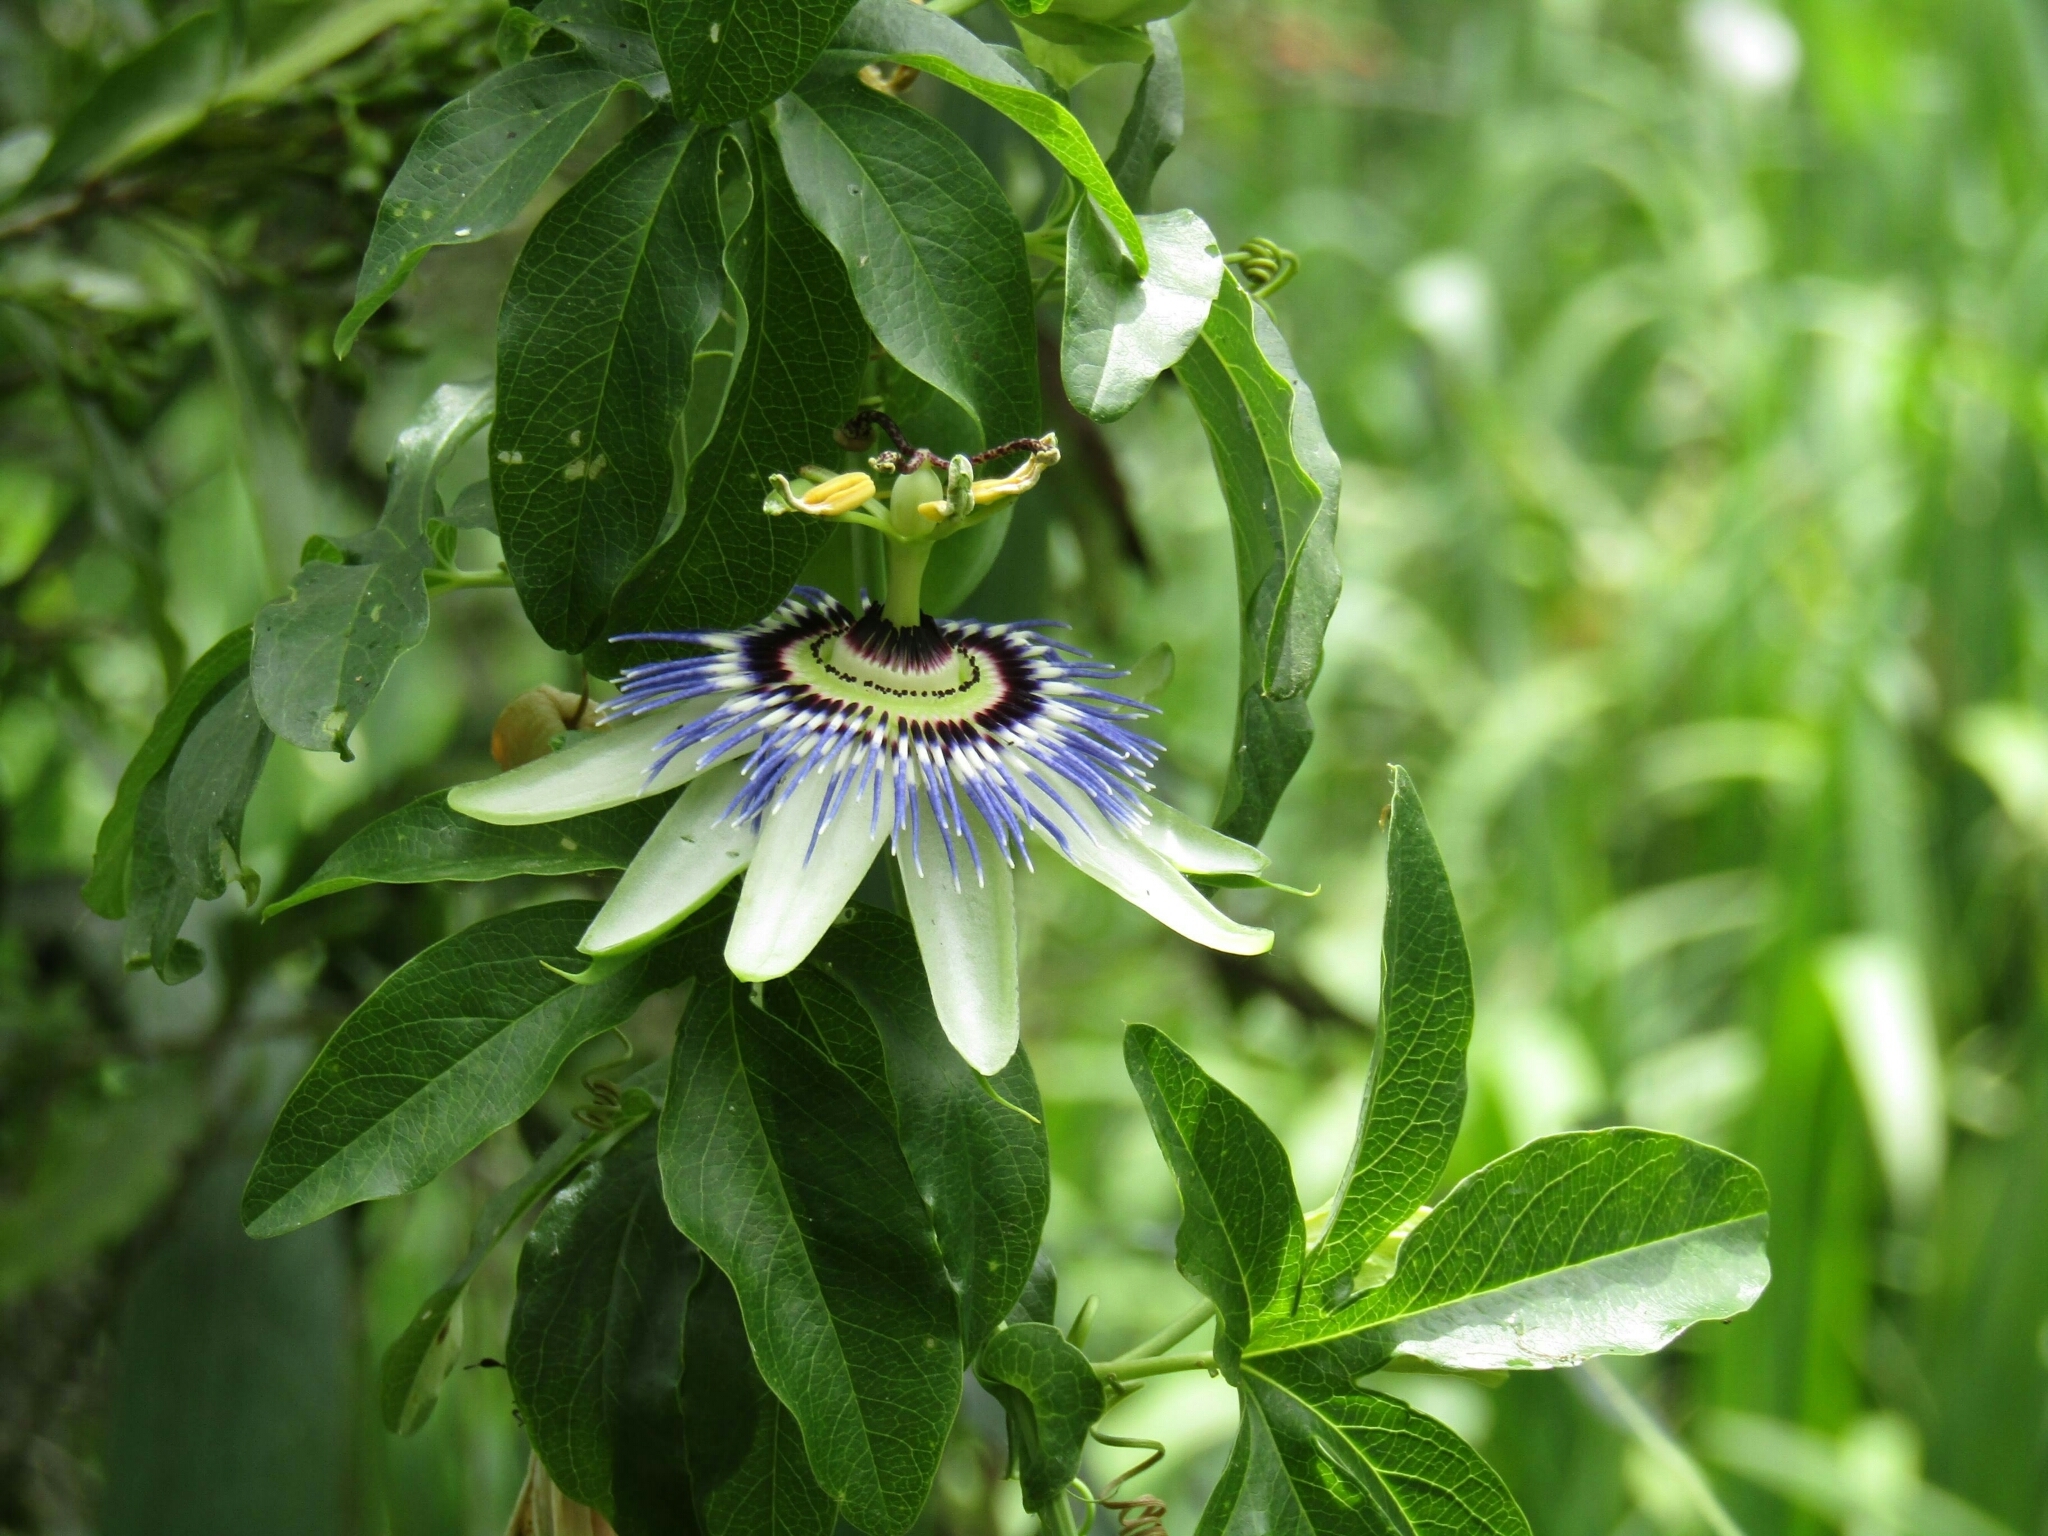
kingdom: Plantae
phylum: Tracheophyta
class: Magnoliopsida
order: Malpighiales
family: Passifloraceae
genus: Passiflora
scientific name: Passiflora caerulea
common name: Blue passionflower
